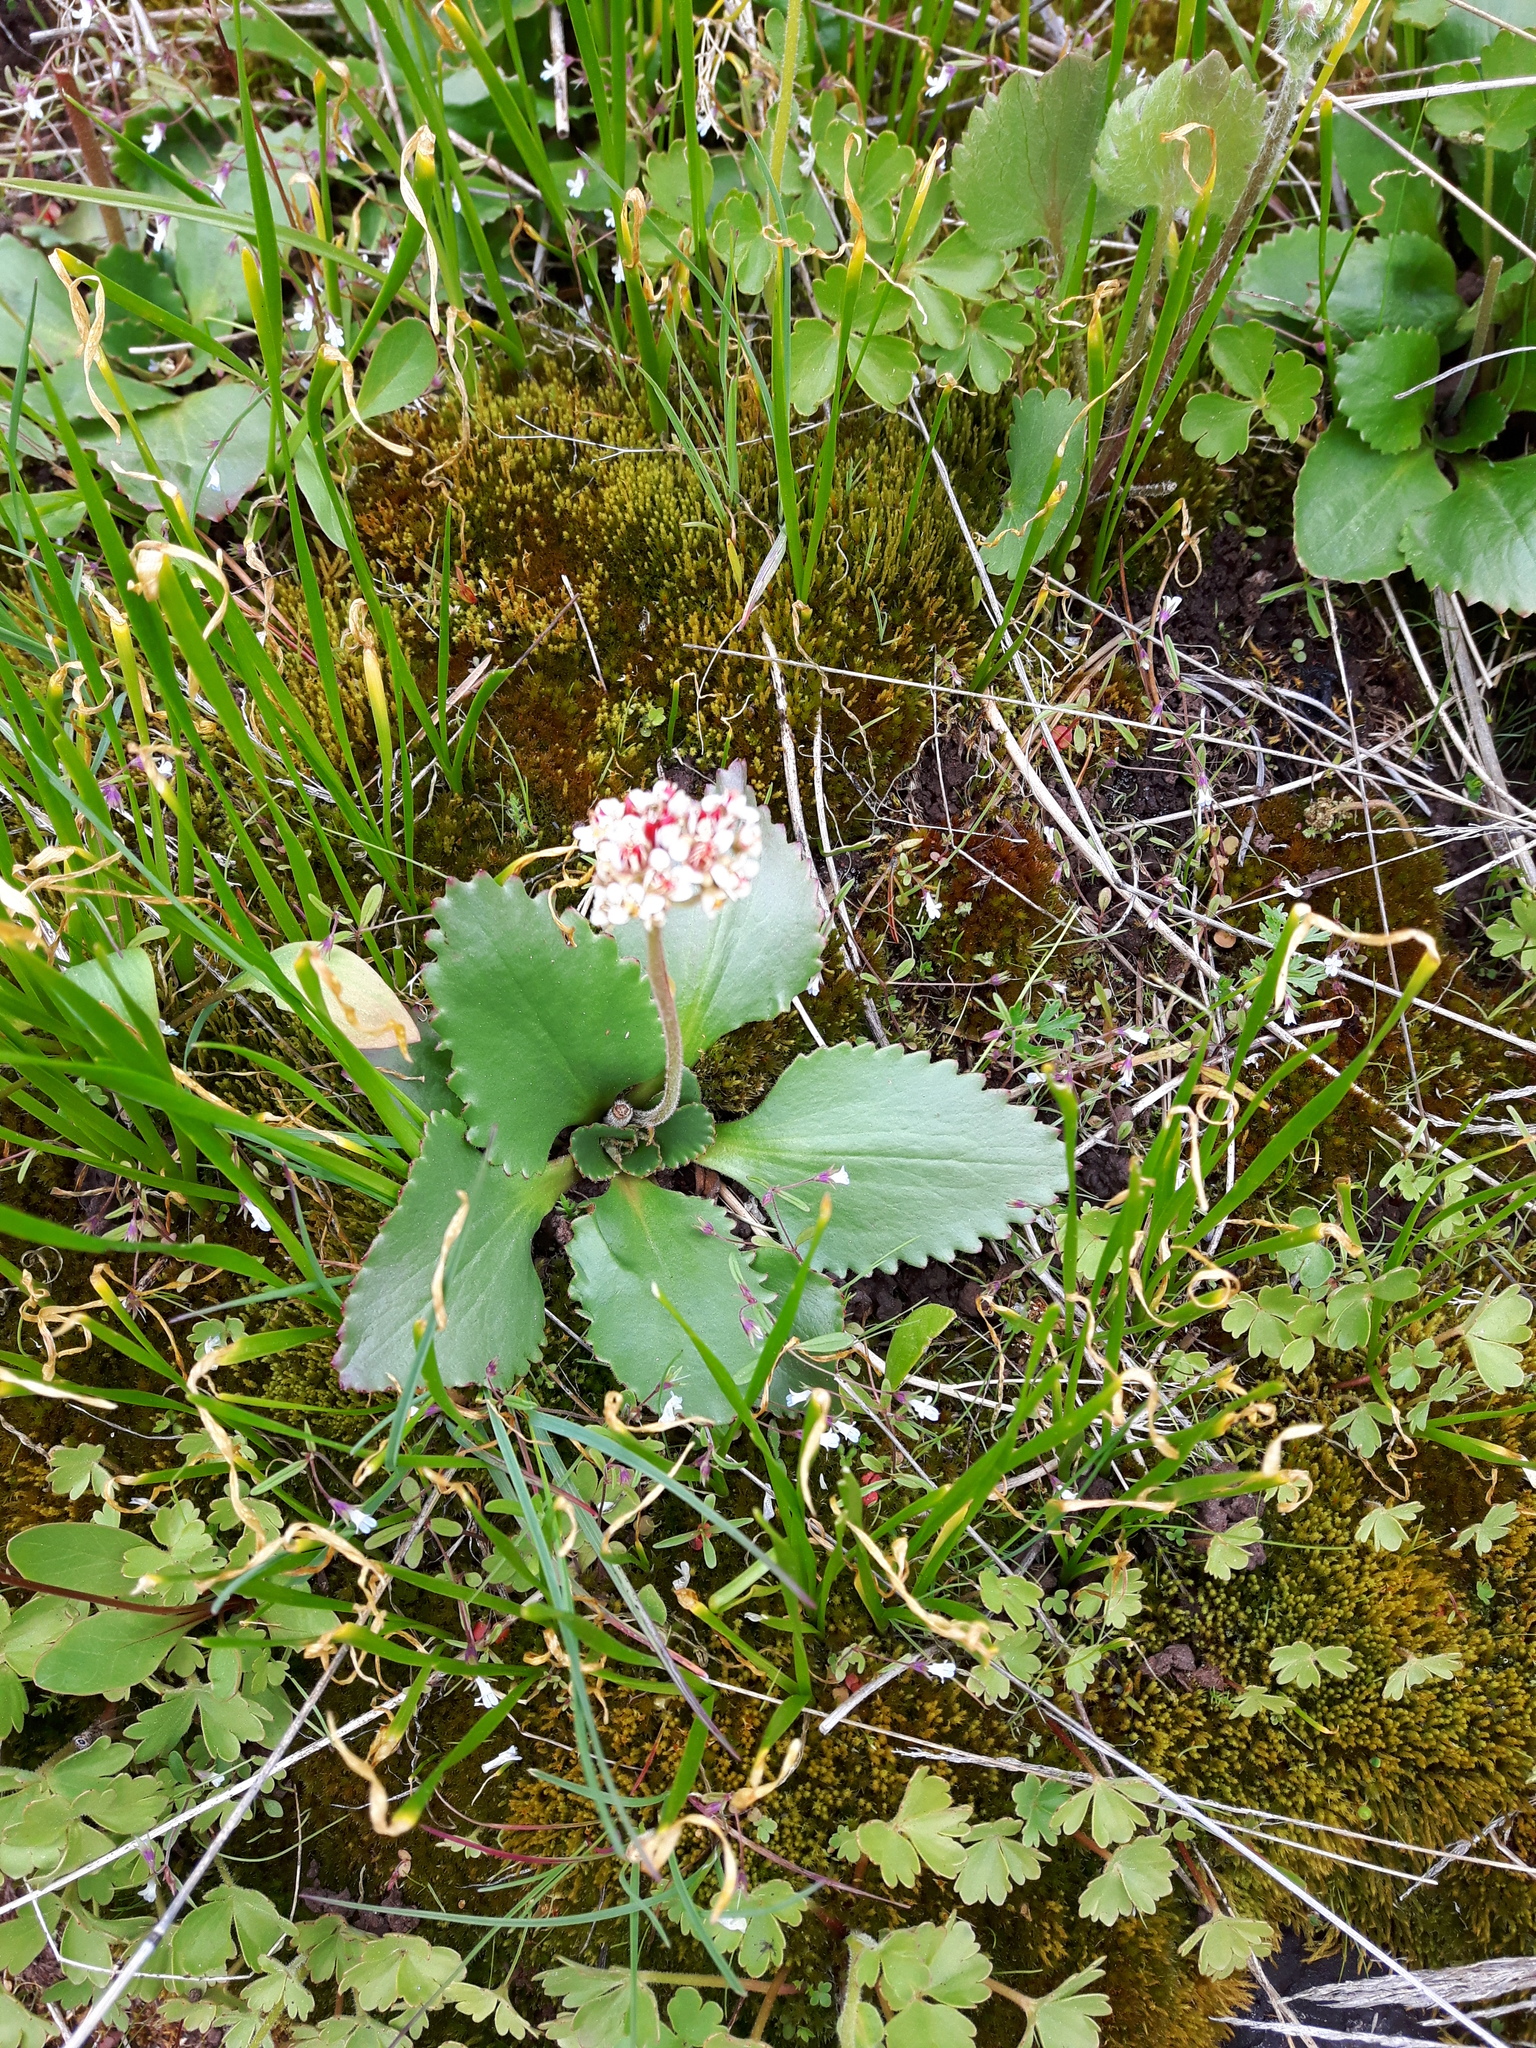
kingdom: Plantae
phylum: Tracheophyta
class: Magnoliopsida
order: Saxifragales
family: Saxifragaceae
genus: Micranthes
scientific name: Micranthes occidentalis
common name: Alberta saxifrage
